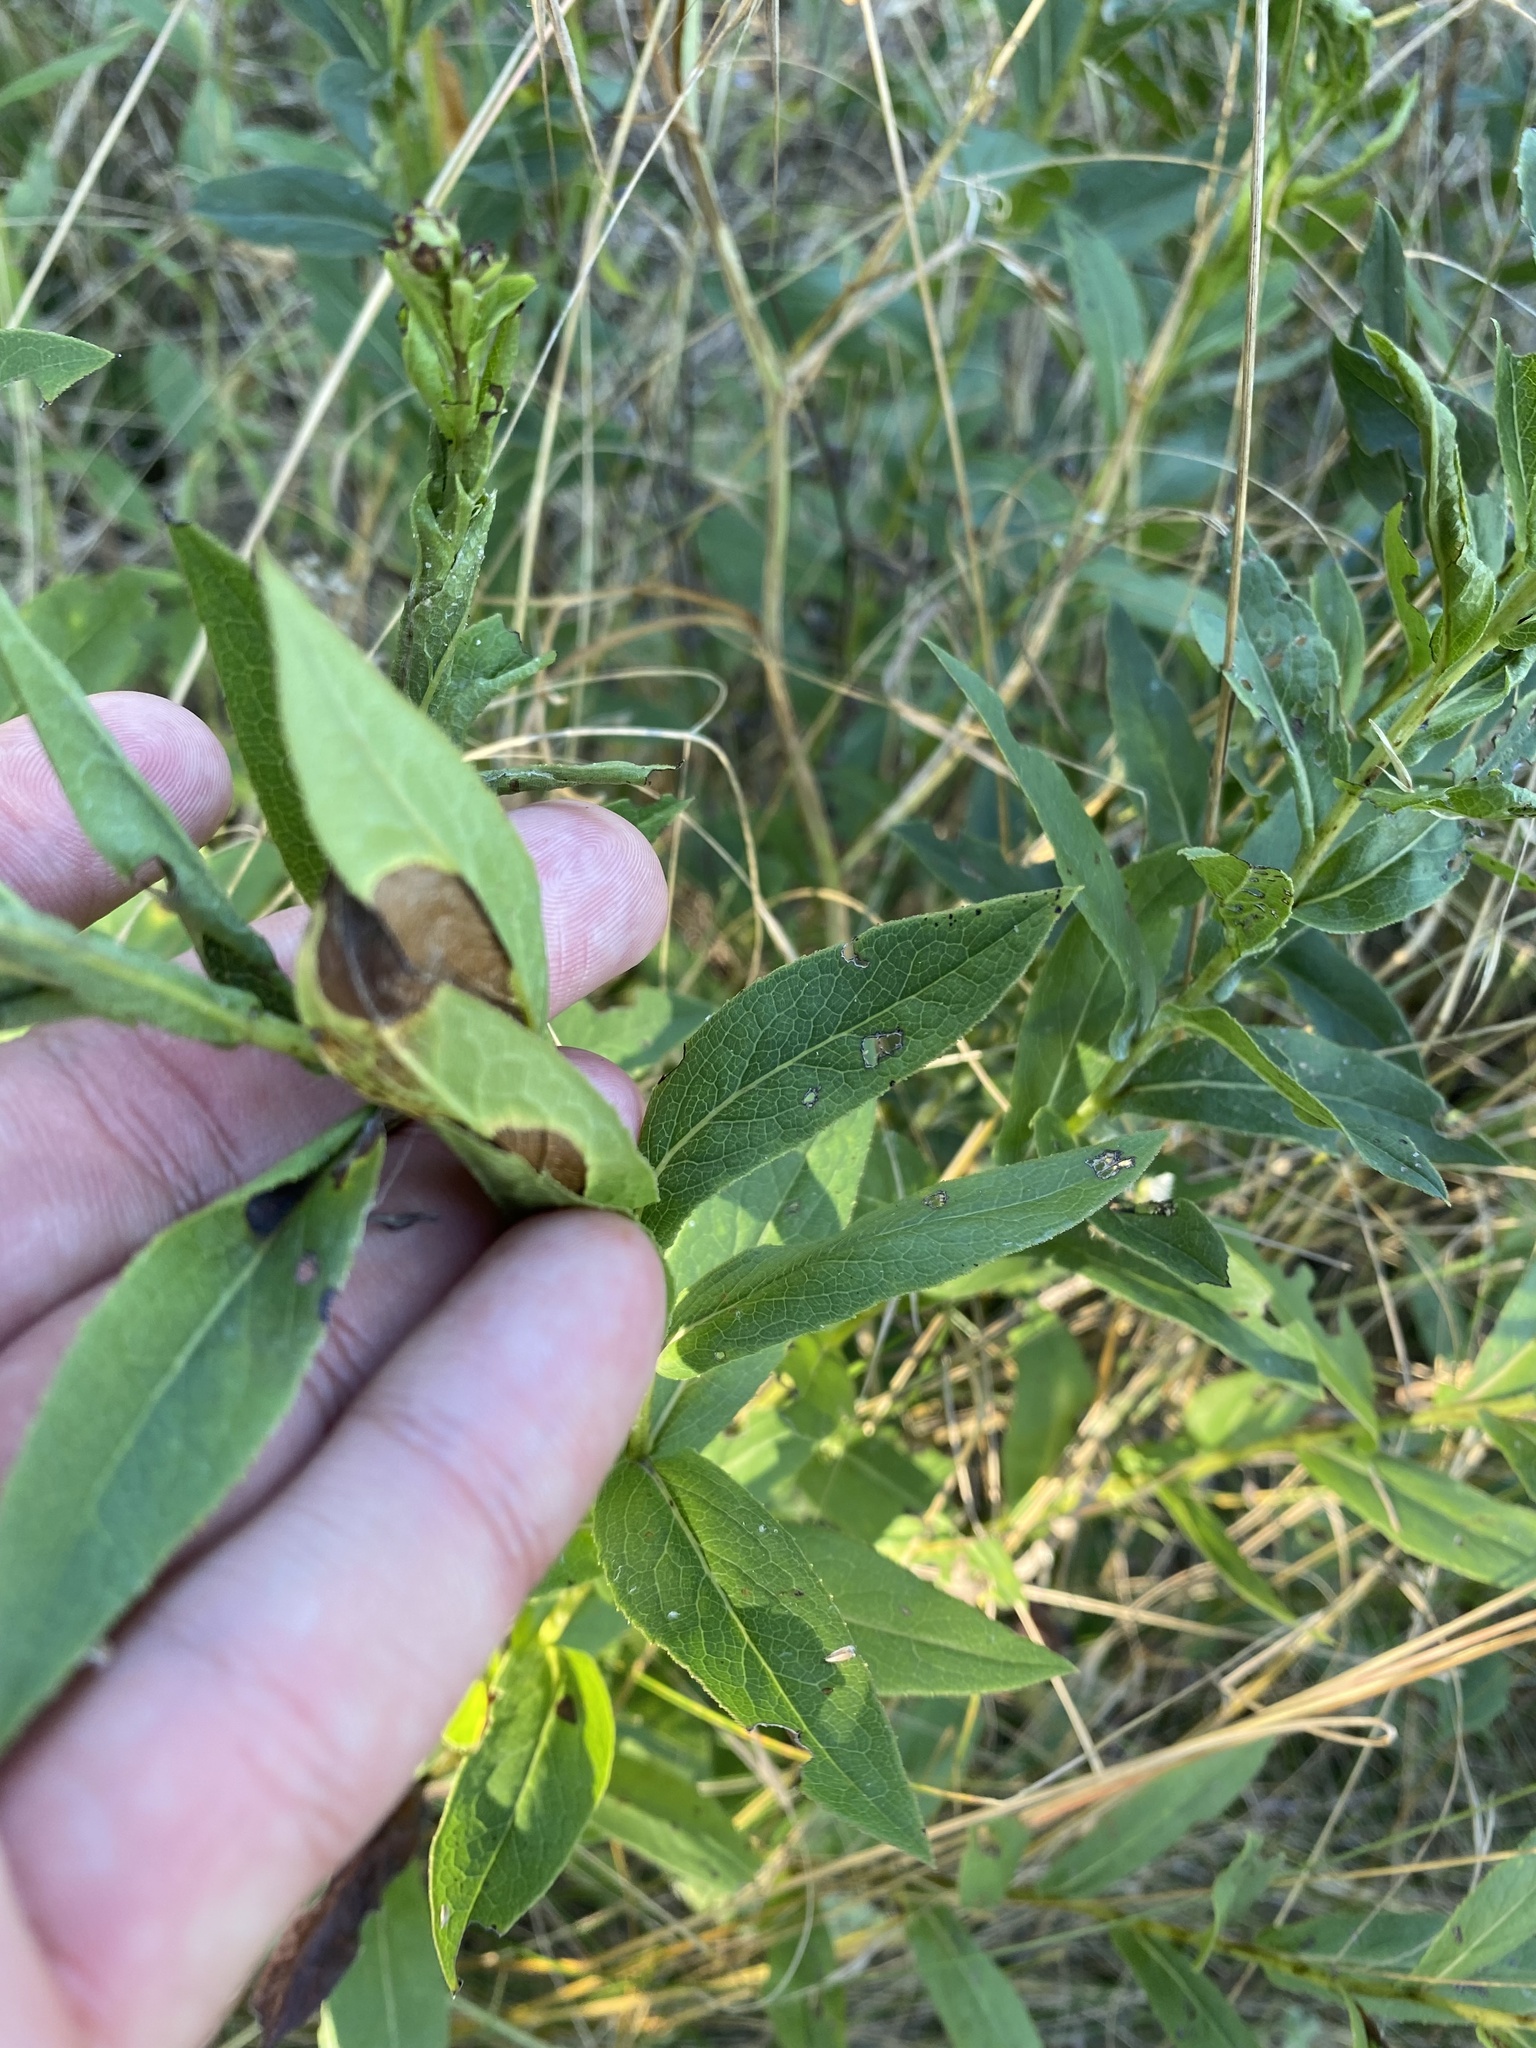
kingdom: Plantae
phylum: Tracheophyta
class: Magnoliopsida
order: Asterales
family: Asteraceae
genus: Pentanema
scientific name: Pentanema asperum
